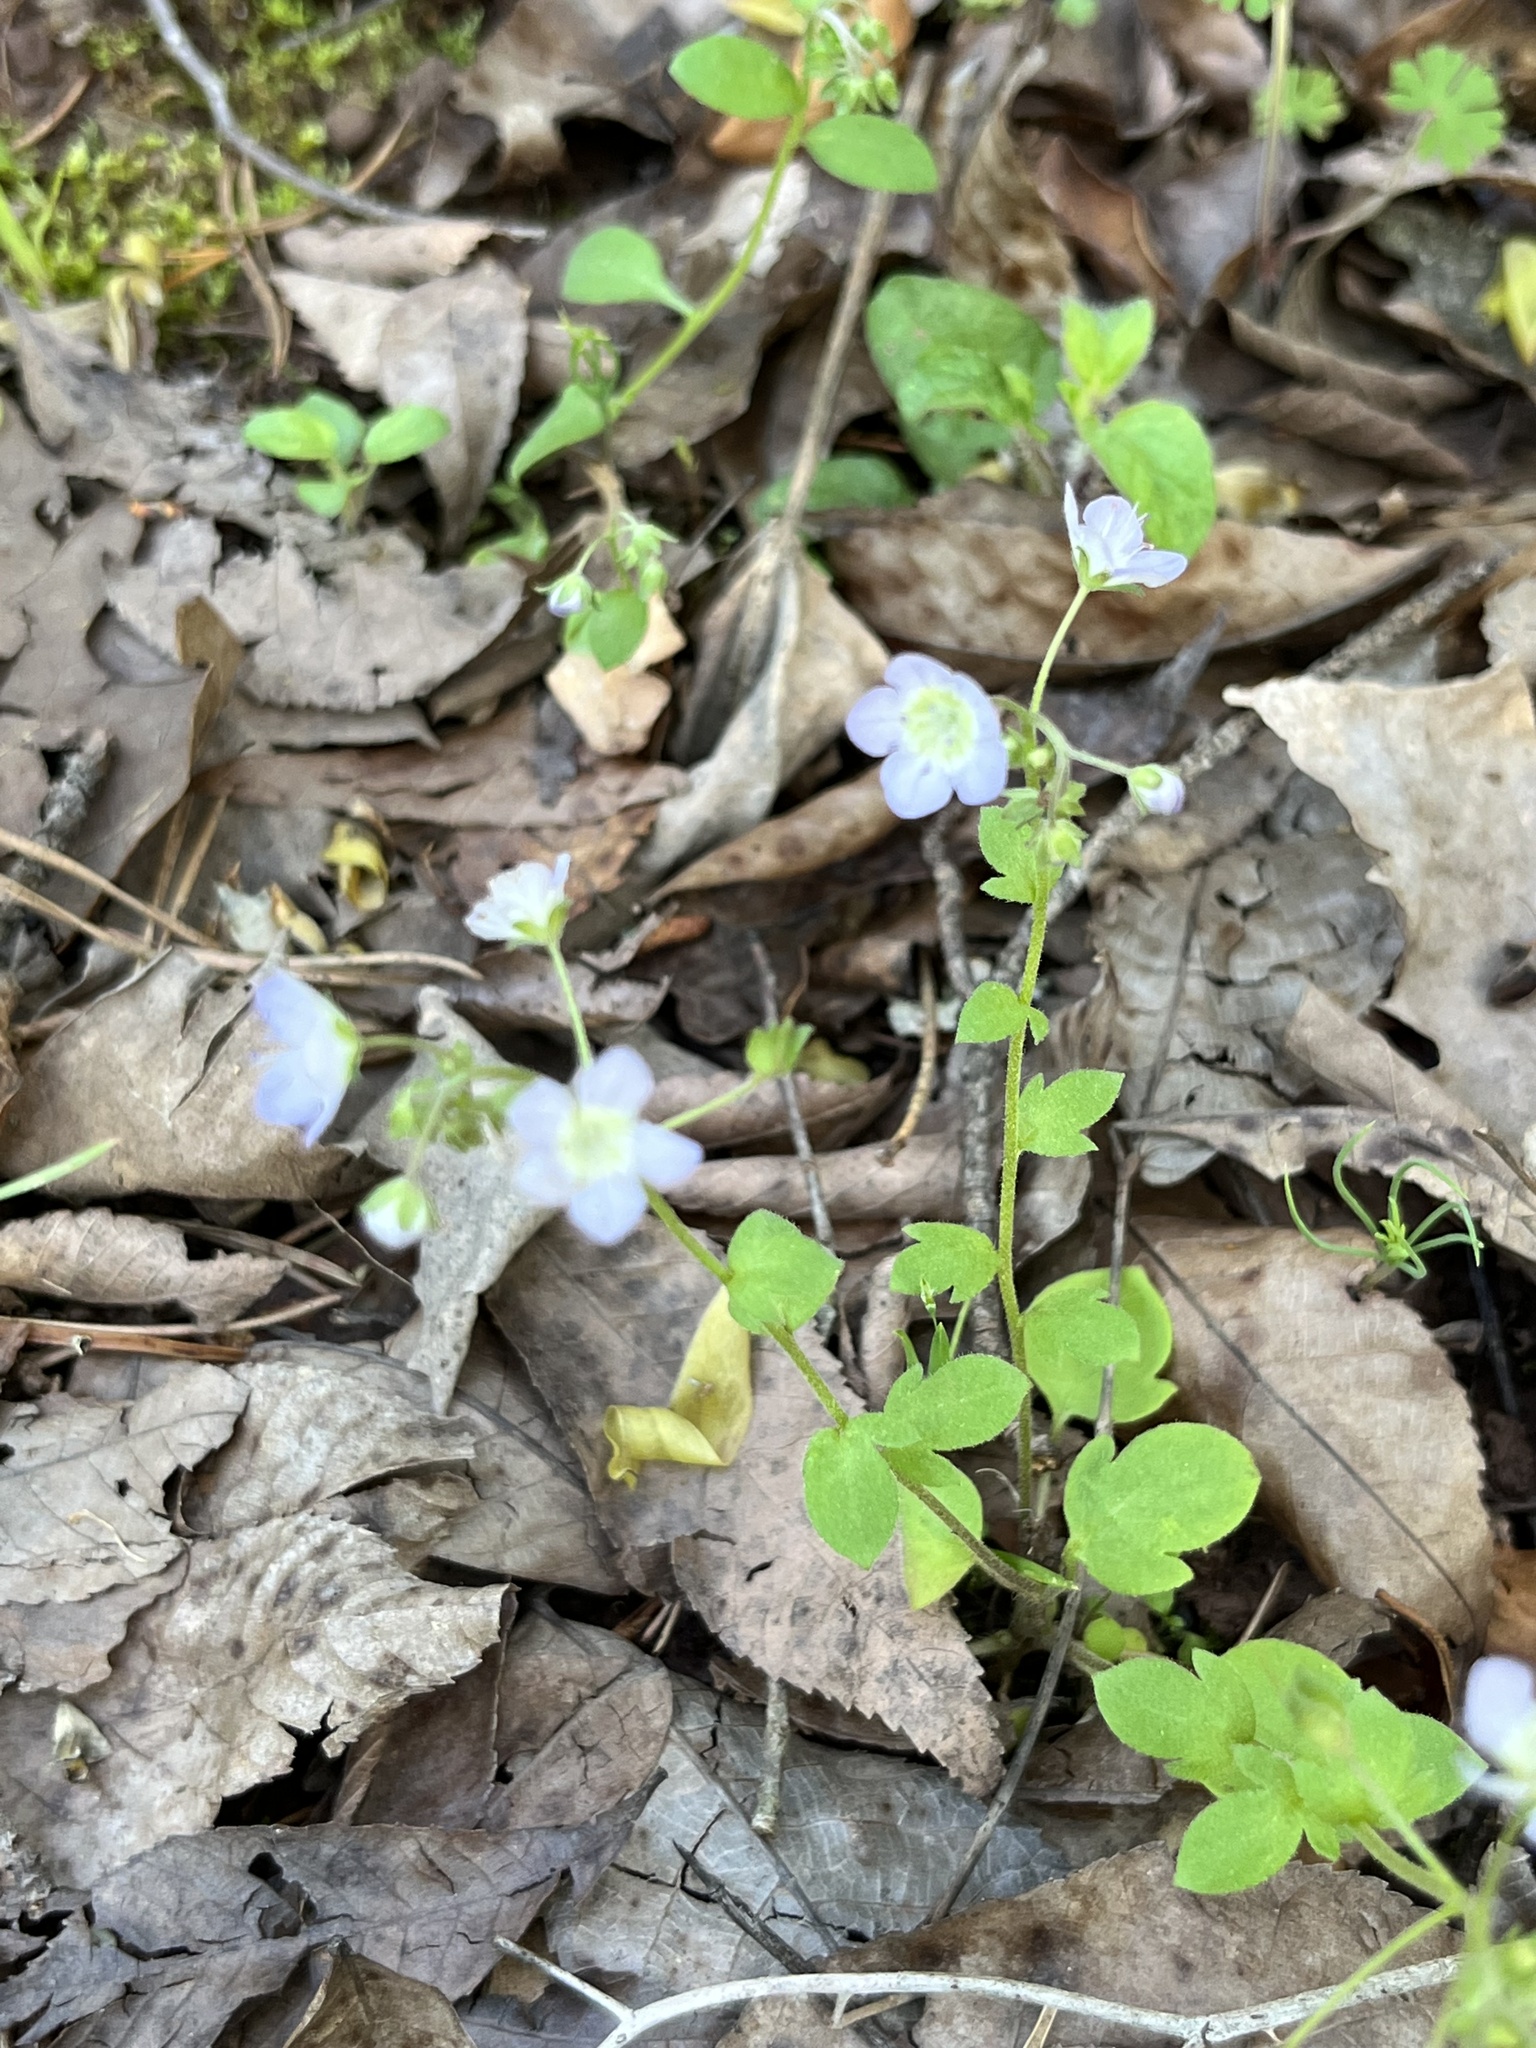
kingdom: Plantae
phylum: Tracheophyta
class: Magnoliopsida
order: Boraginales
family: Hydrophyllaceae
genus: Phacelia
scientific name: Phacelia dubia
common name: Appalachian phacelia
